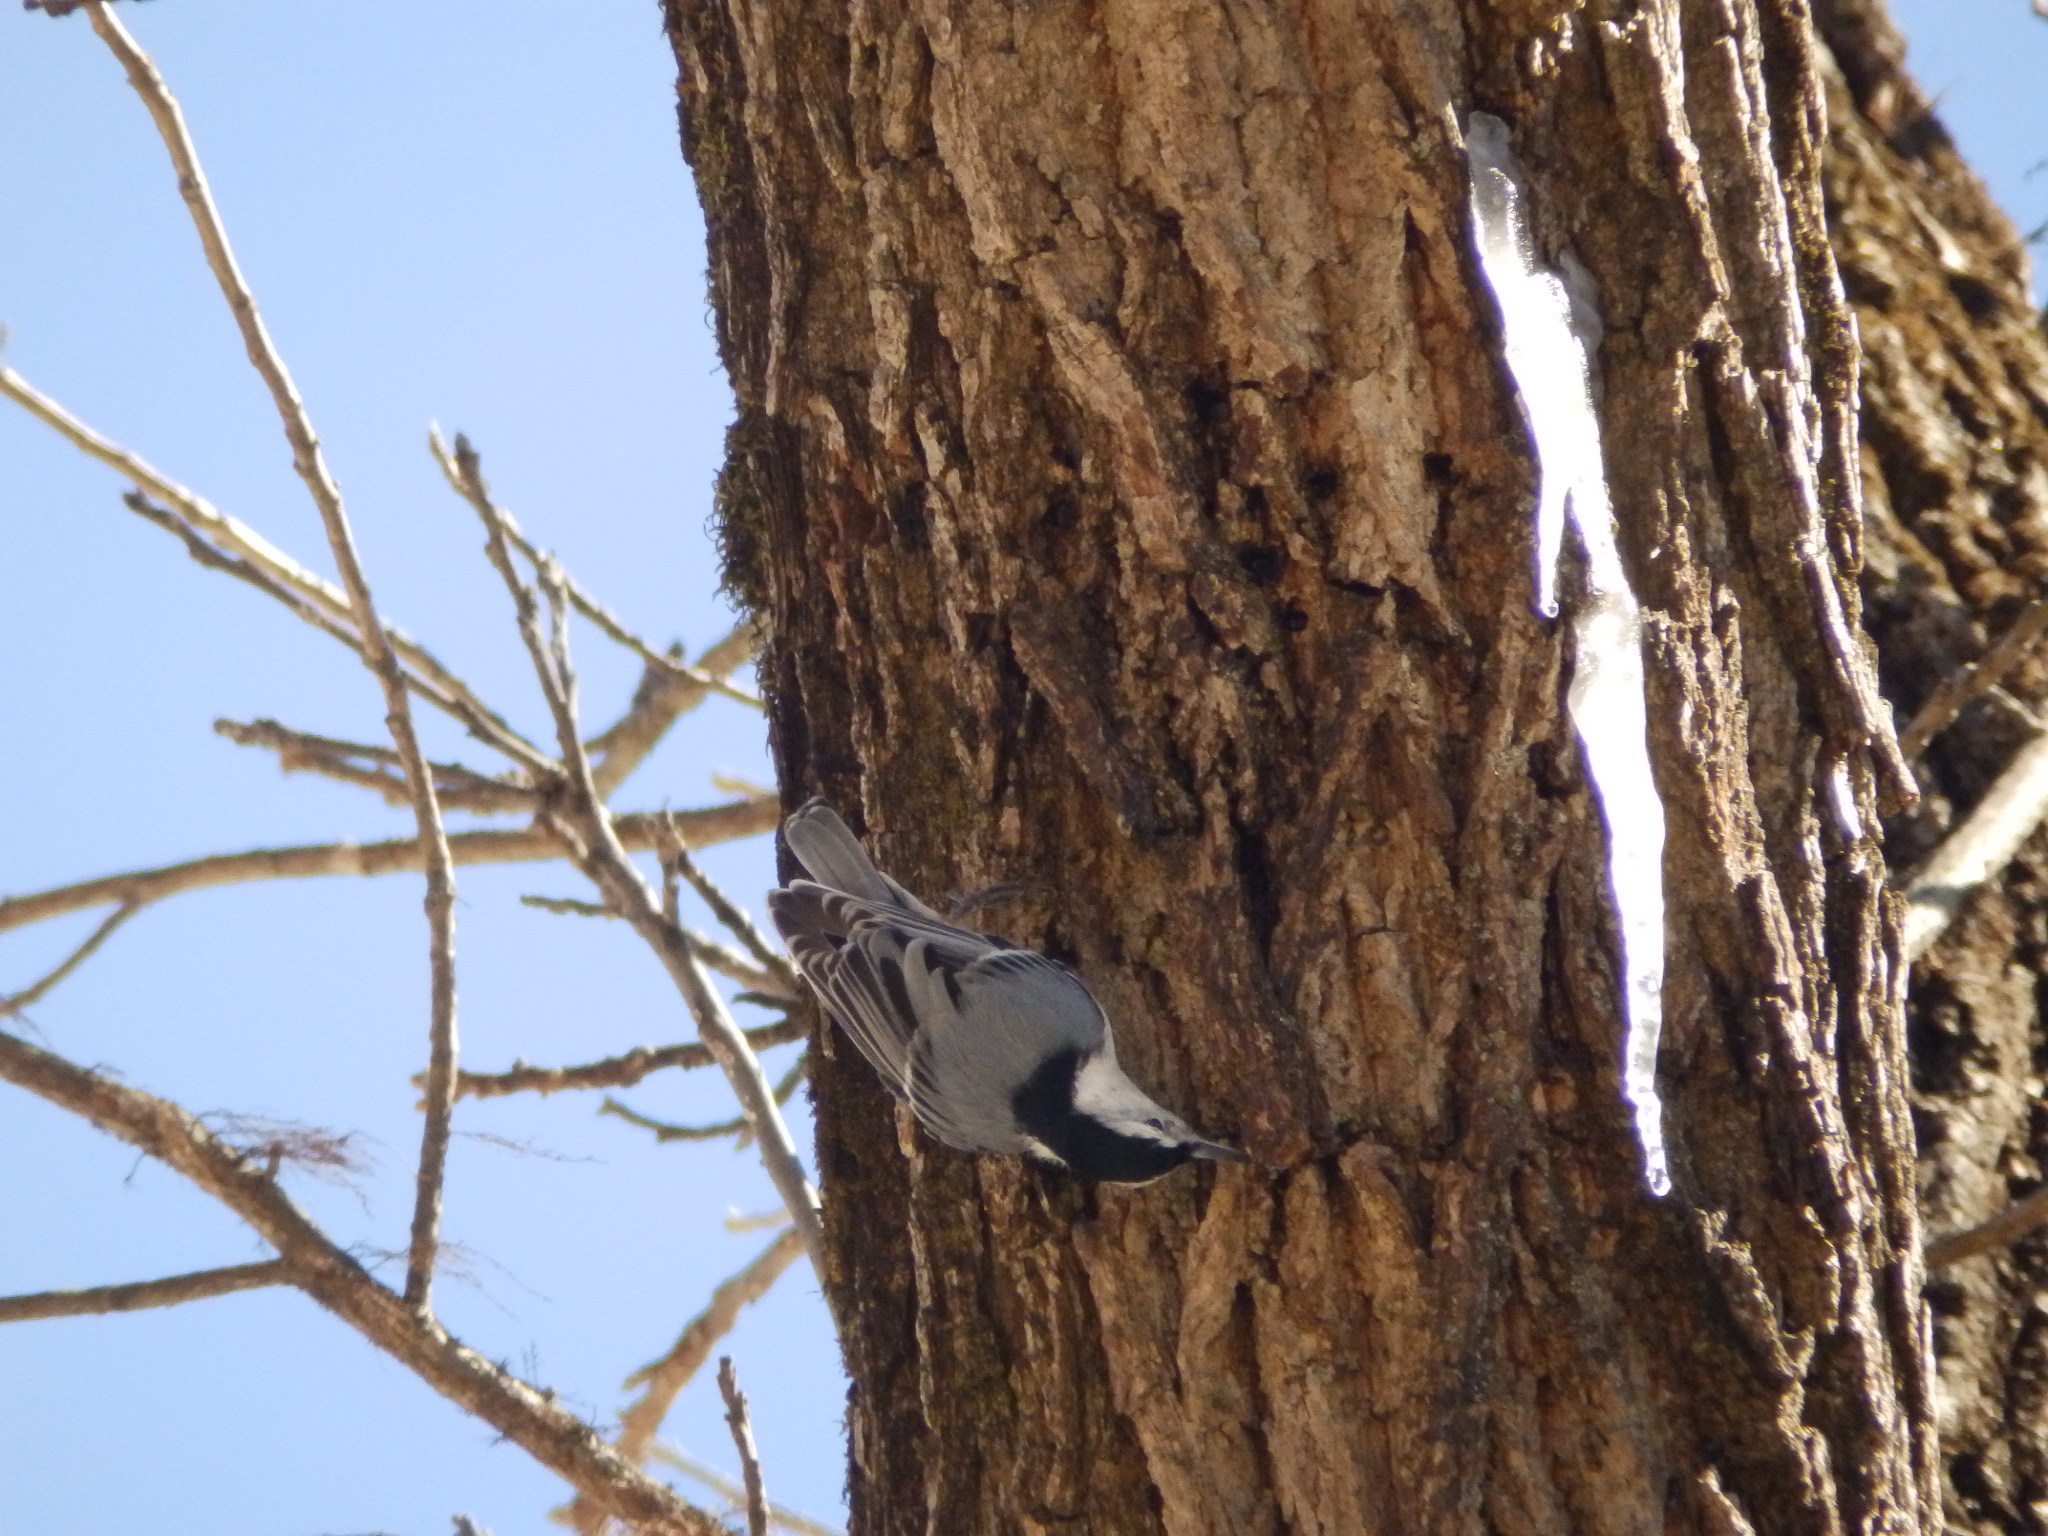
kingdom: Animalia
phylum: Chordata
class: Aves
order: Passeriformes
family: Sittidae
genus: Sitta
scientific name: Sitta carolinensis
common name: White-breasted nuthatch
